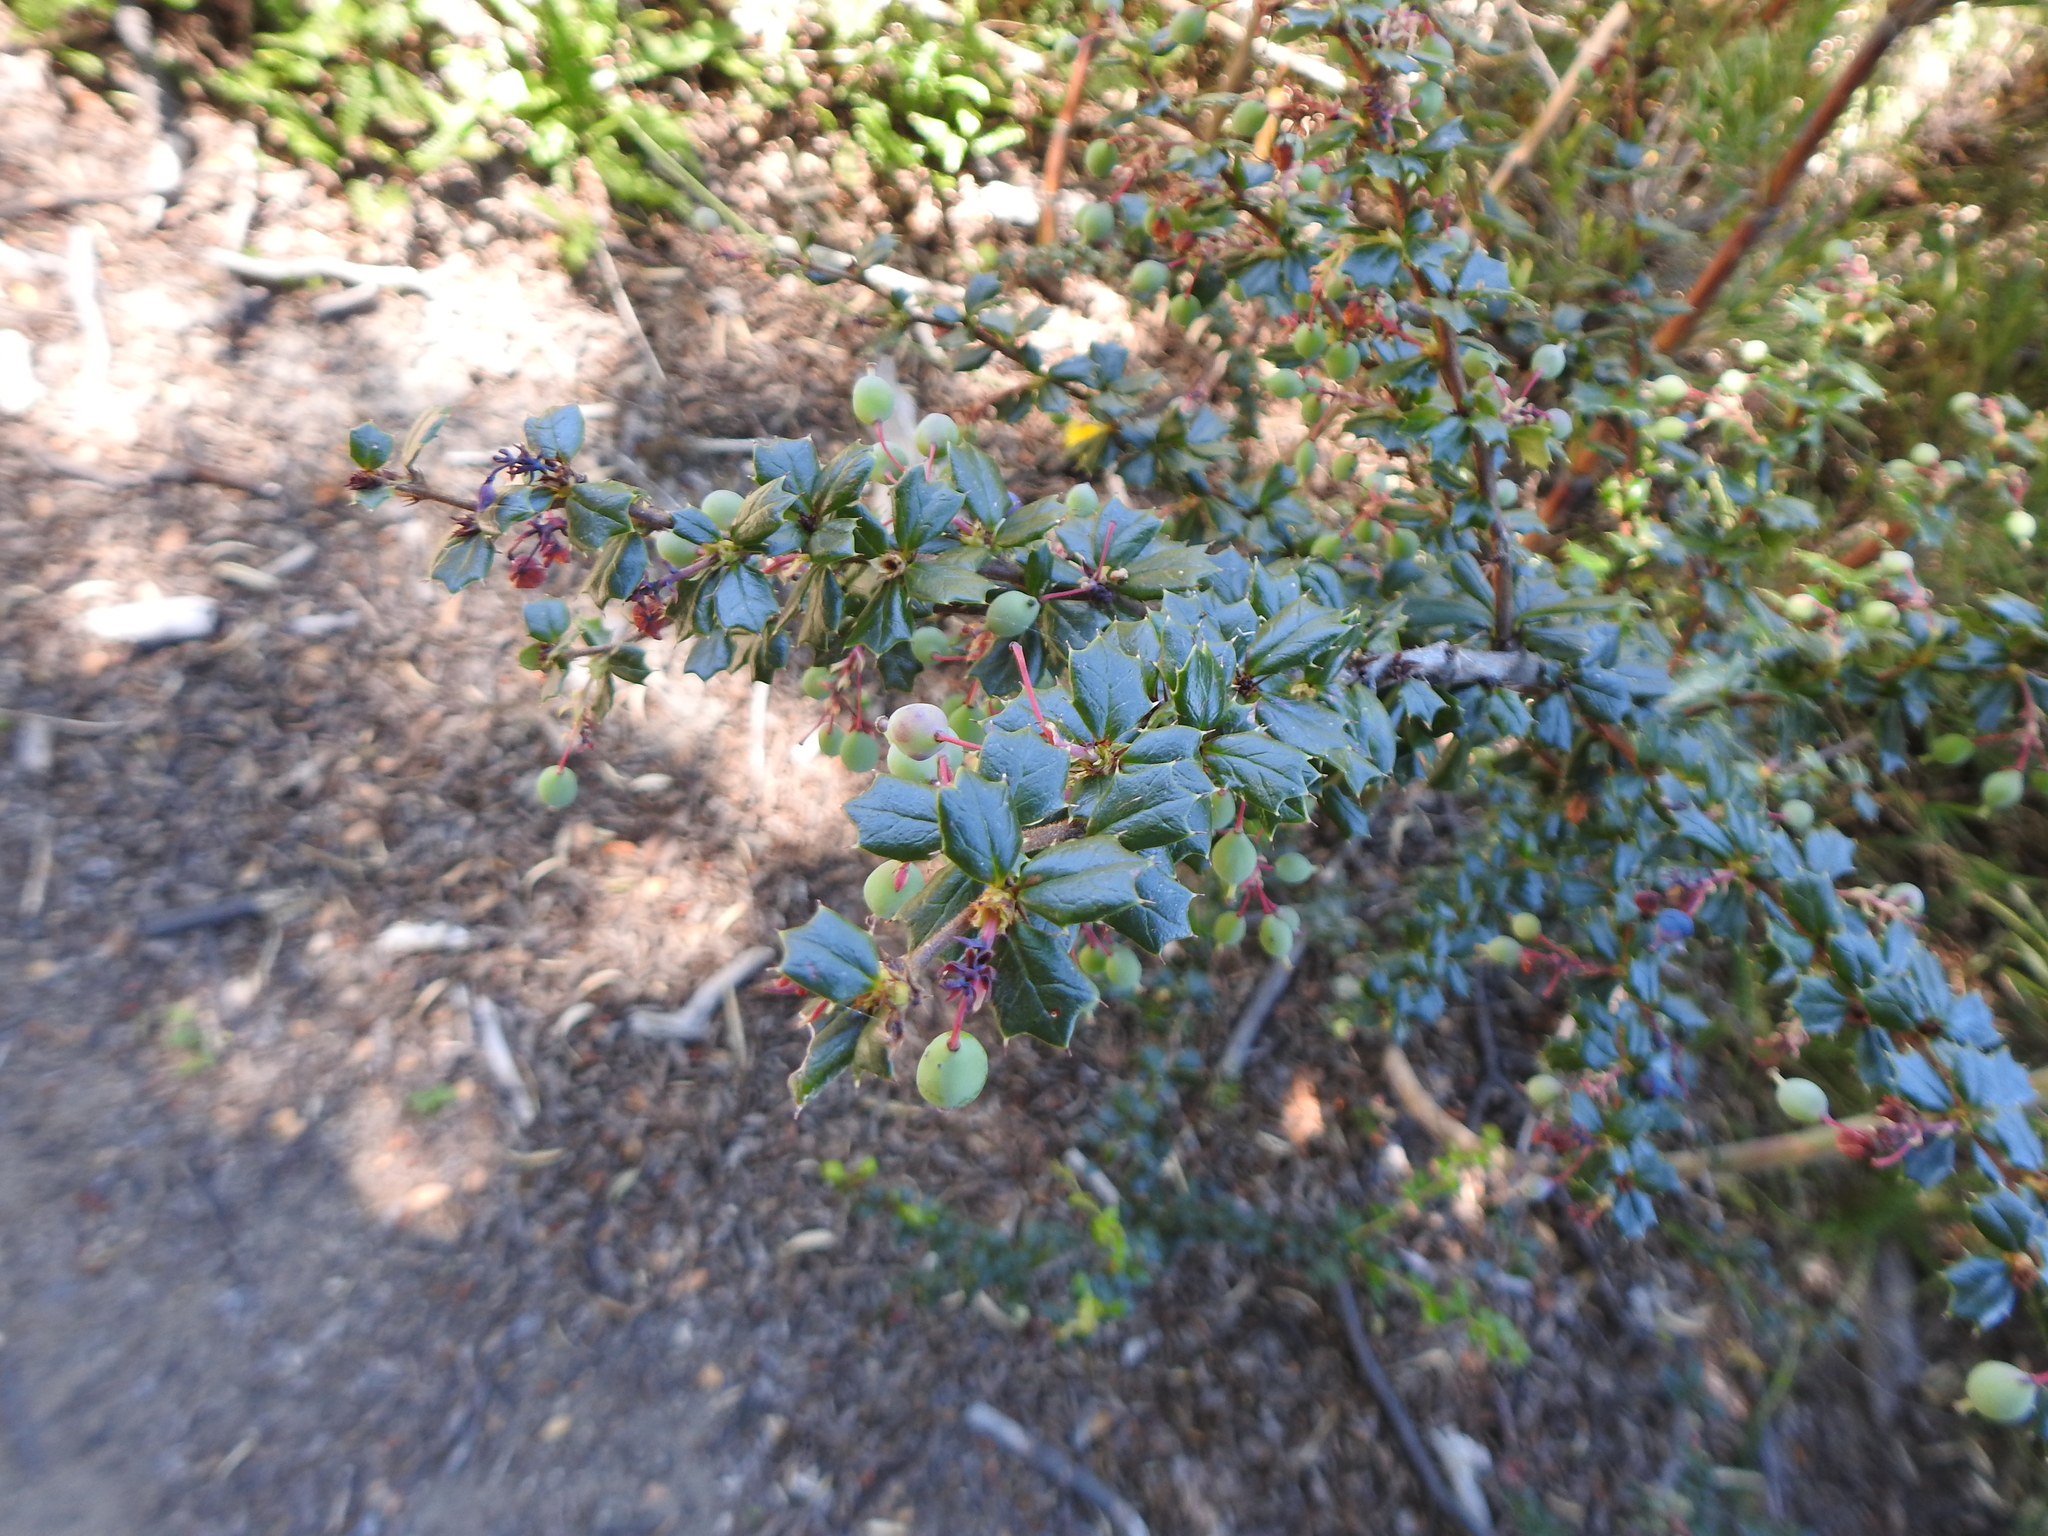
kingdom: Plantae
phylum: Tracheophyta
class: Magnoliopsida
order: Ranunculales
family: Berberidaceae
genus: Berberis
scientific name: Berberis darwinii
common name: Darwin's barberry
